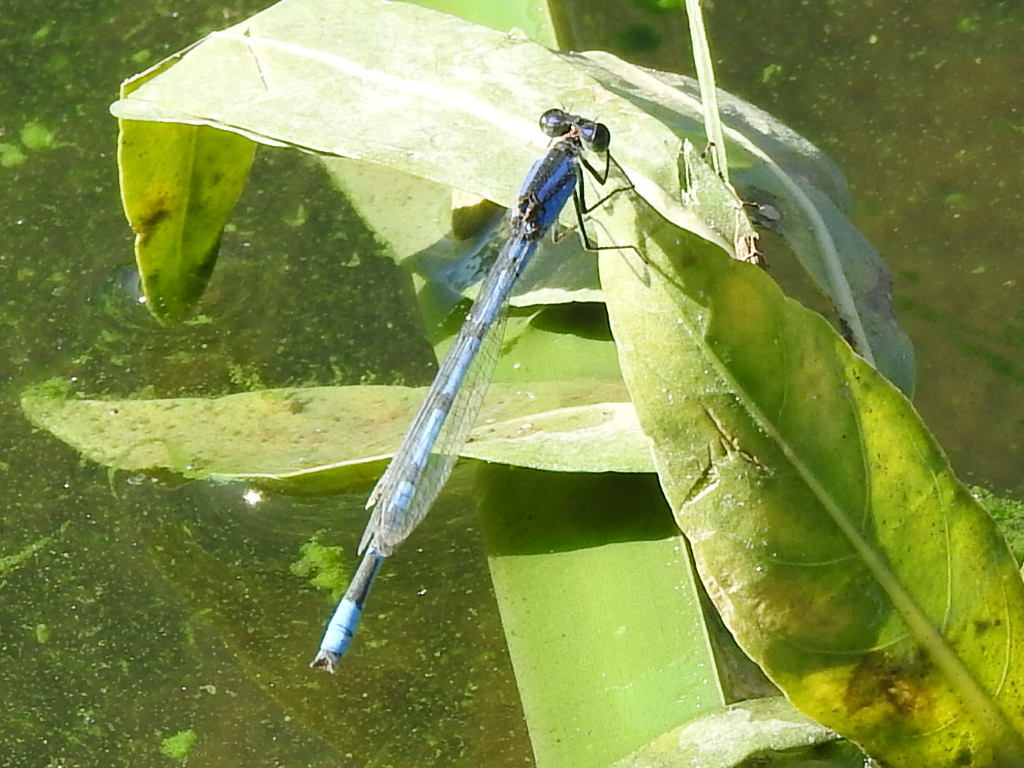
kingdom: Animalia
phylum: Arthropoda
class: Insecta
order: Odonata
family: Coenagrionidae
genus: Enallagma
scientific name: Enallagma civile
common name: Damselfly
